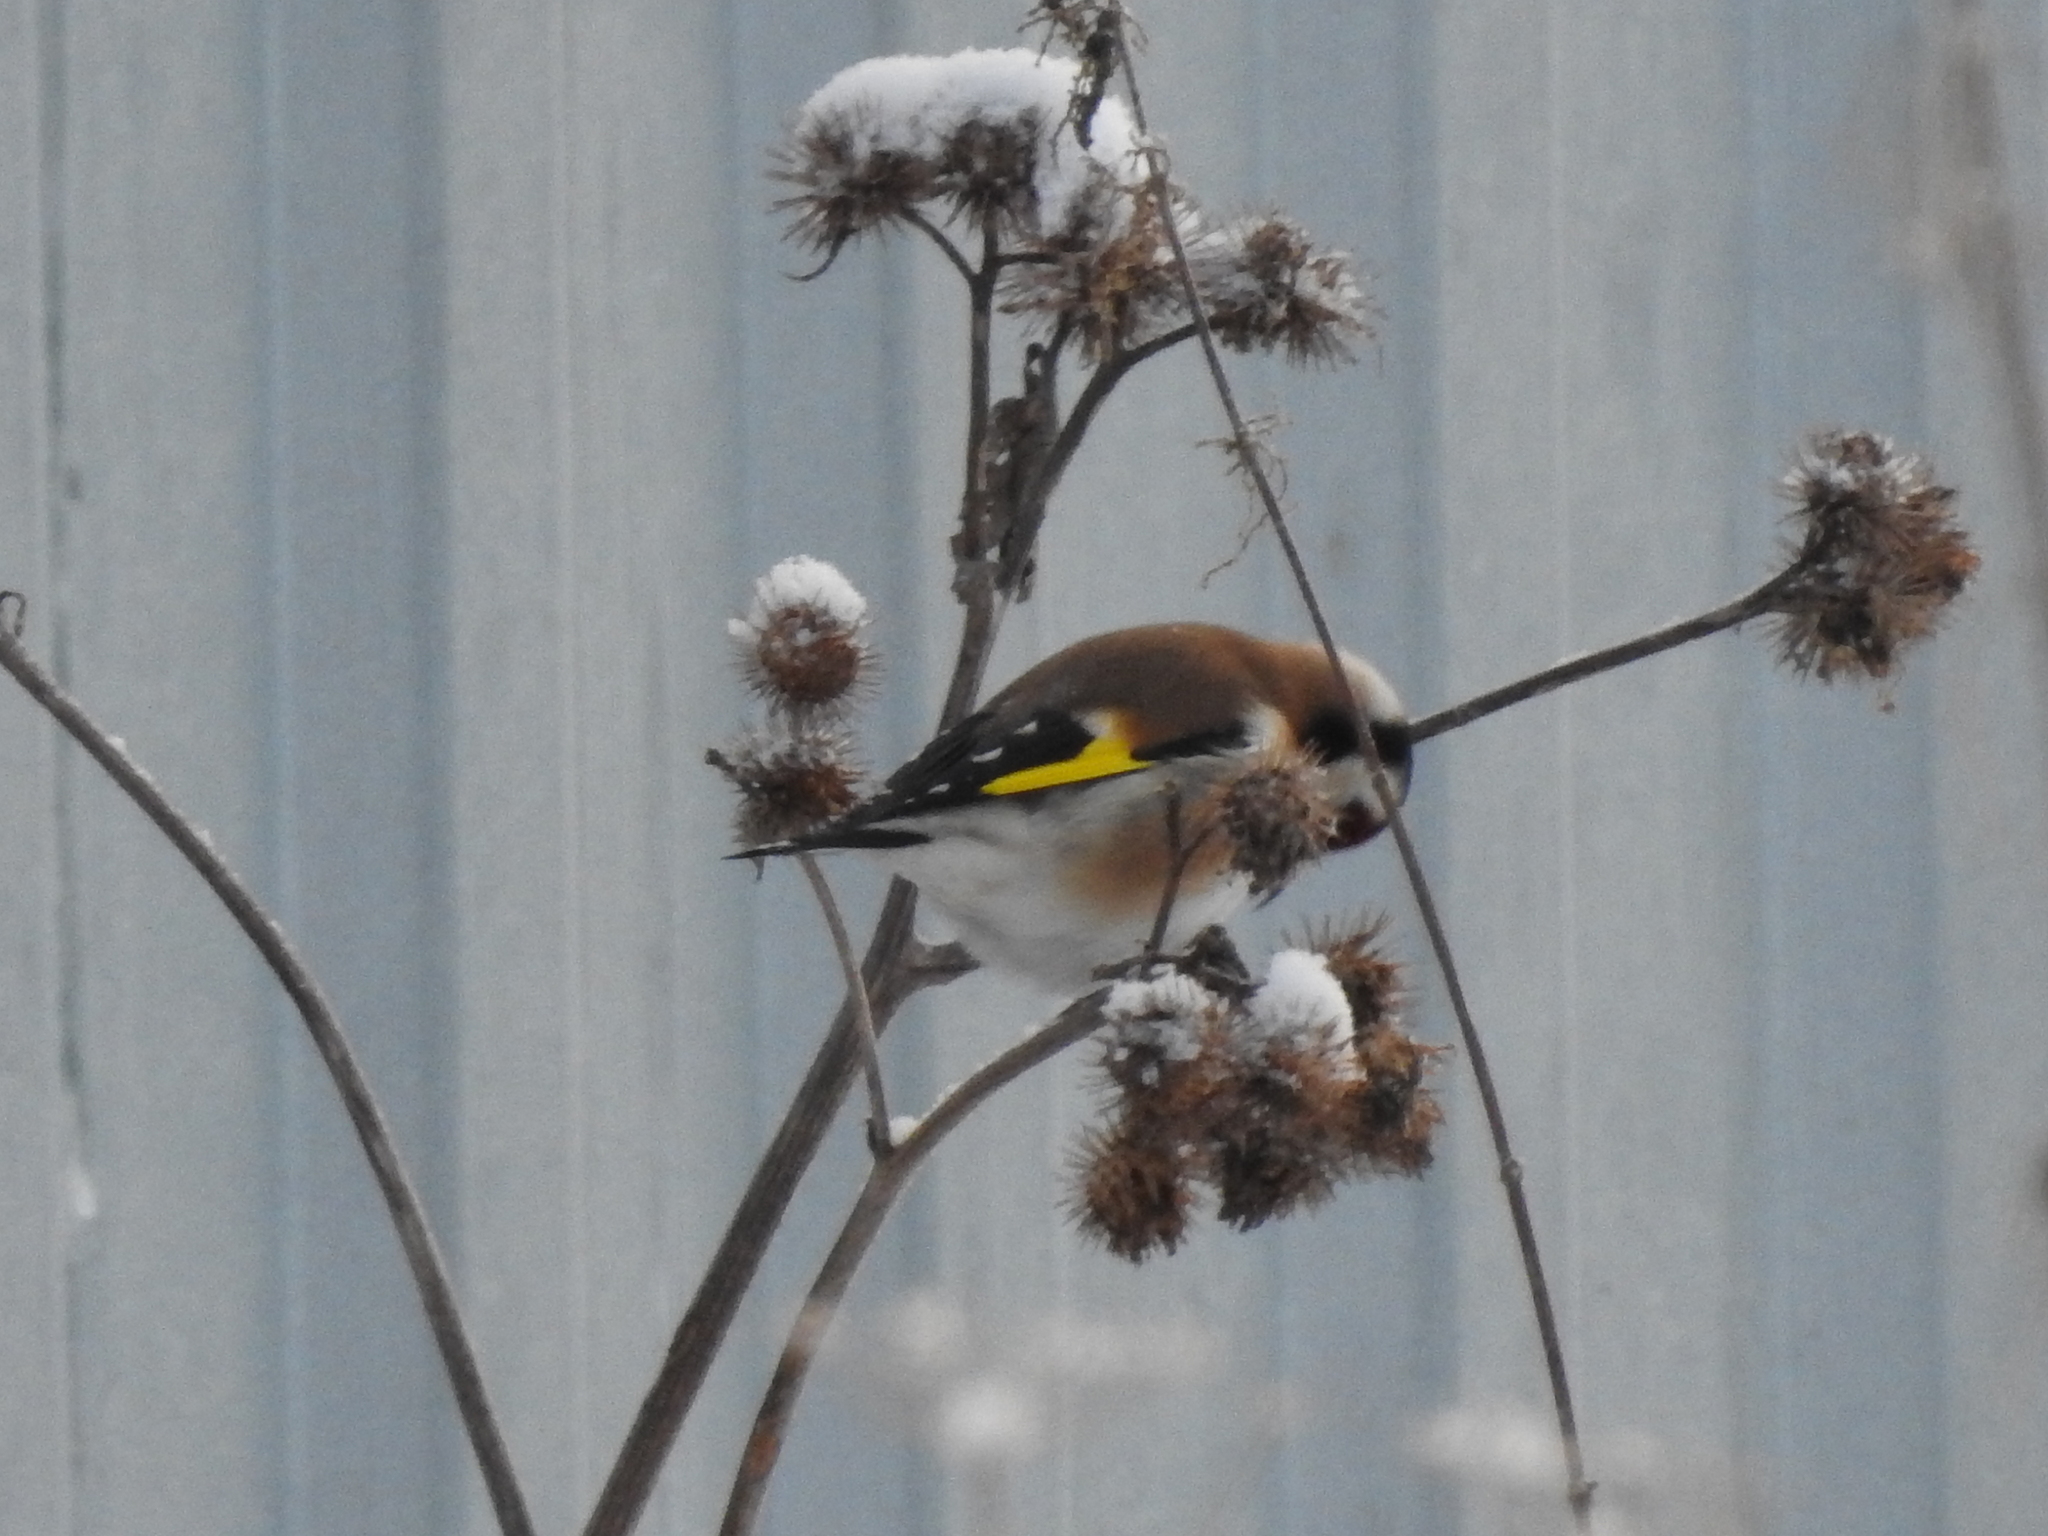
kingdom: Animalia
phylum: Chordata
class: Aves
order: Passeriformes
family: Fringillidae
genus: Carduelis
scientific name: Carduelis carduelis
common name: European goldfinch
